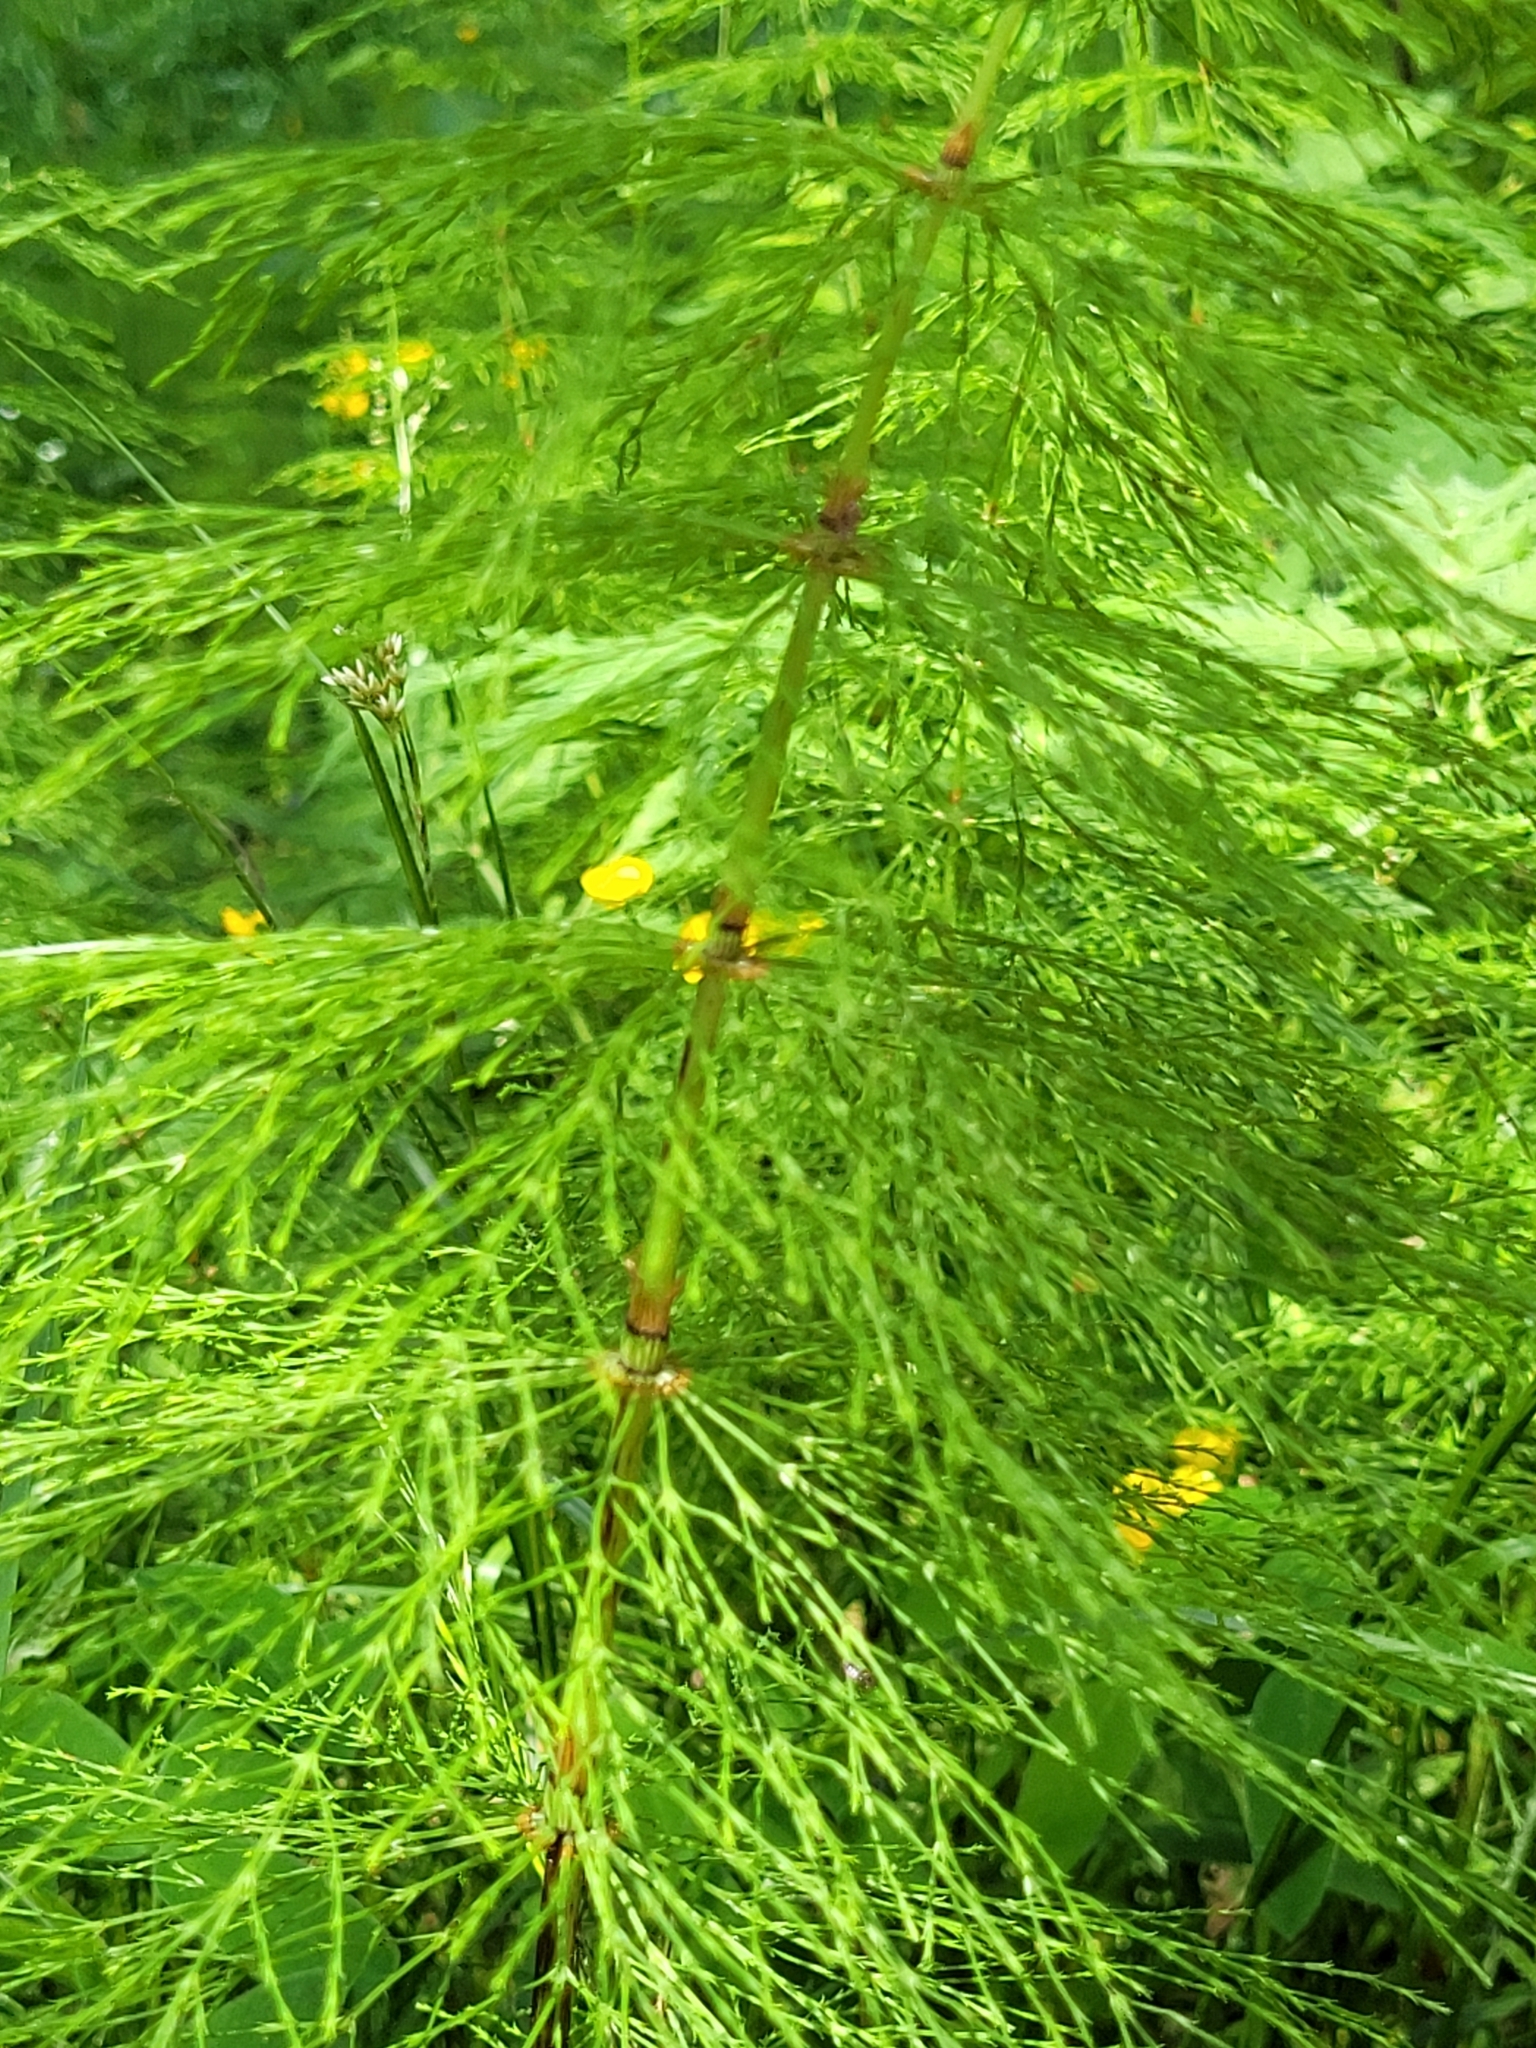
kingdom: Plantae
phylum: Tracheophyta
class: Polypodiopsida
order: Equisetales
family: Equisetaceae
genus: Equisetum
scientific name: Equisetum sylvaticum
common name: Wood horsetail
